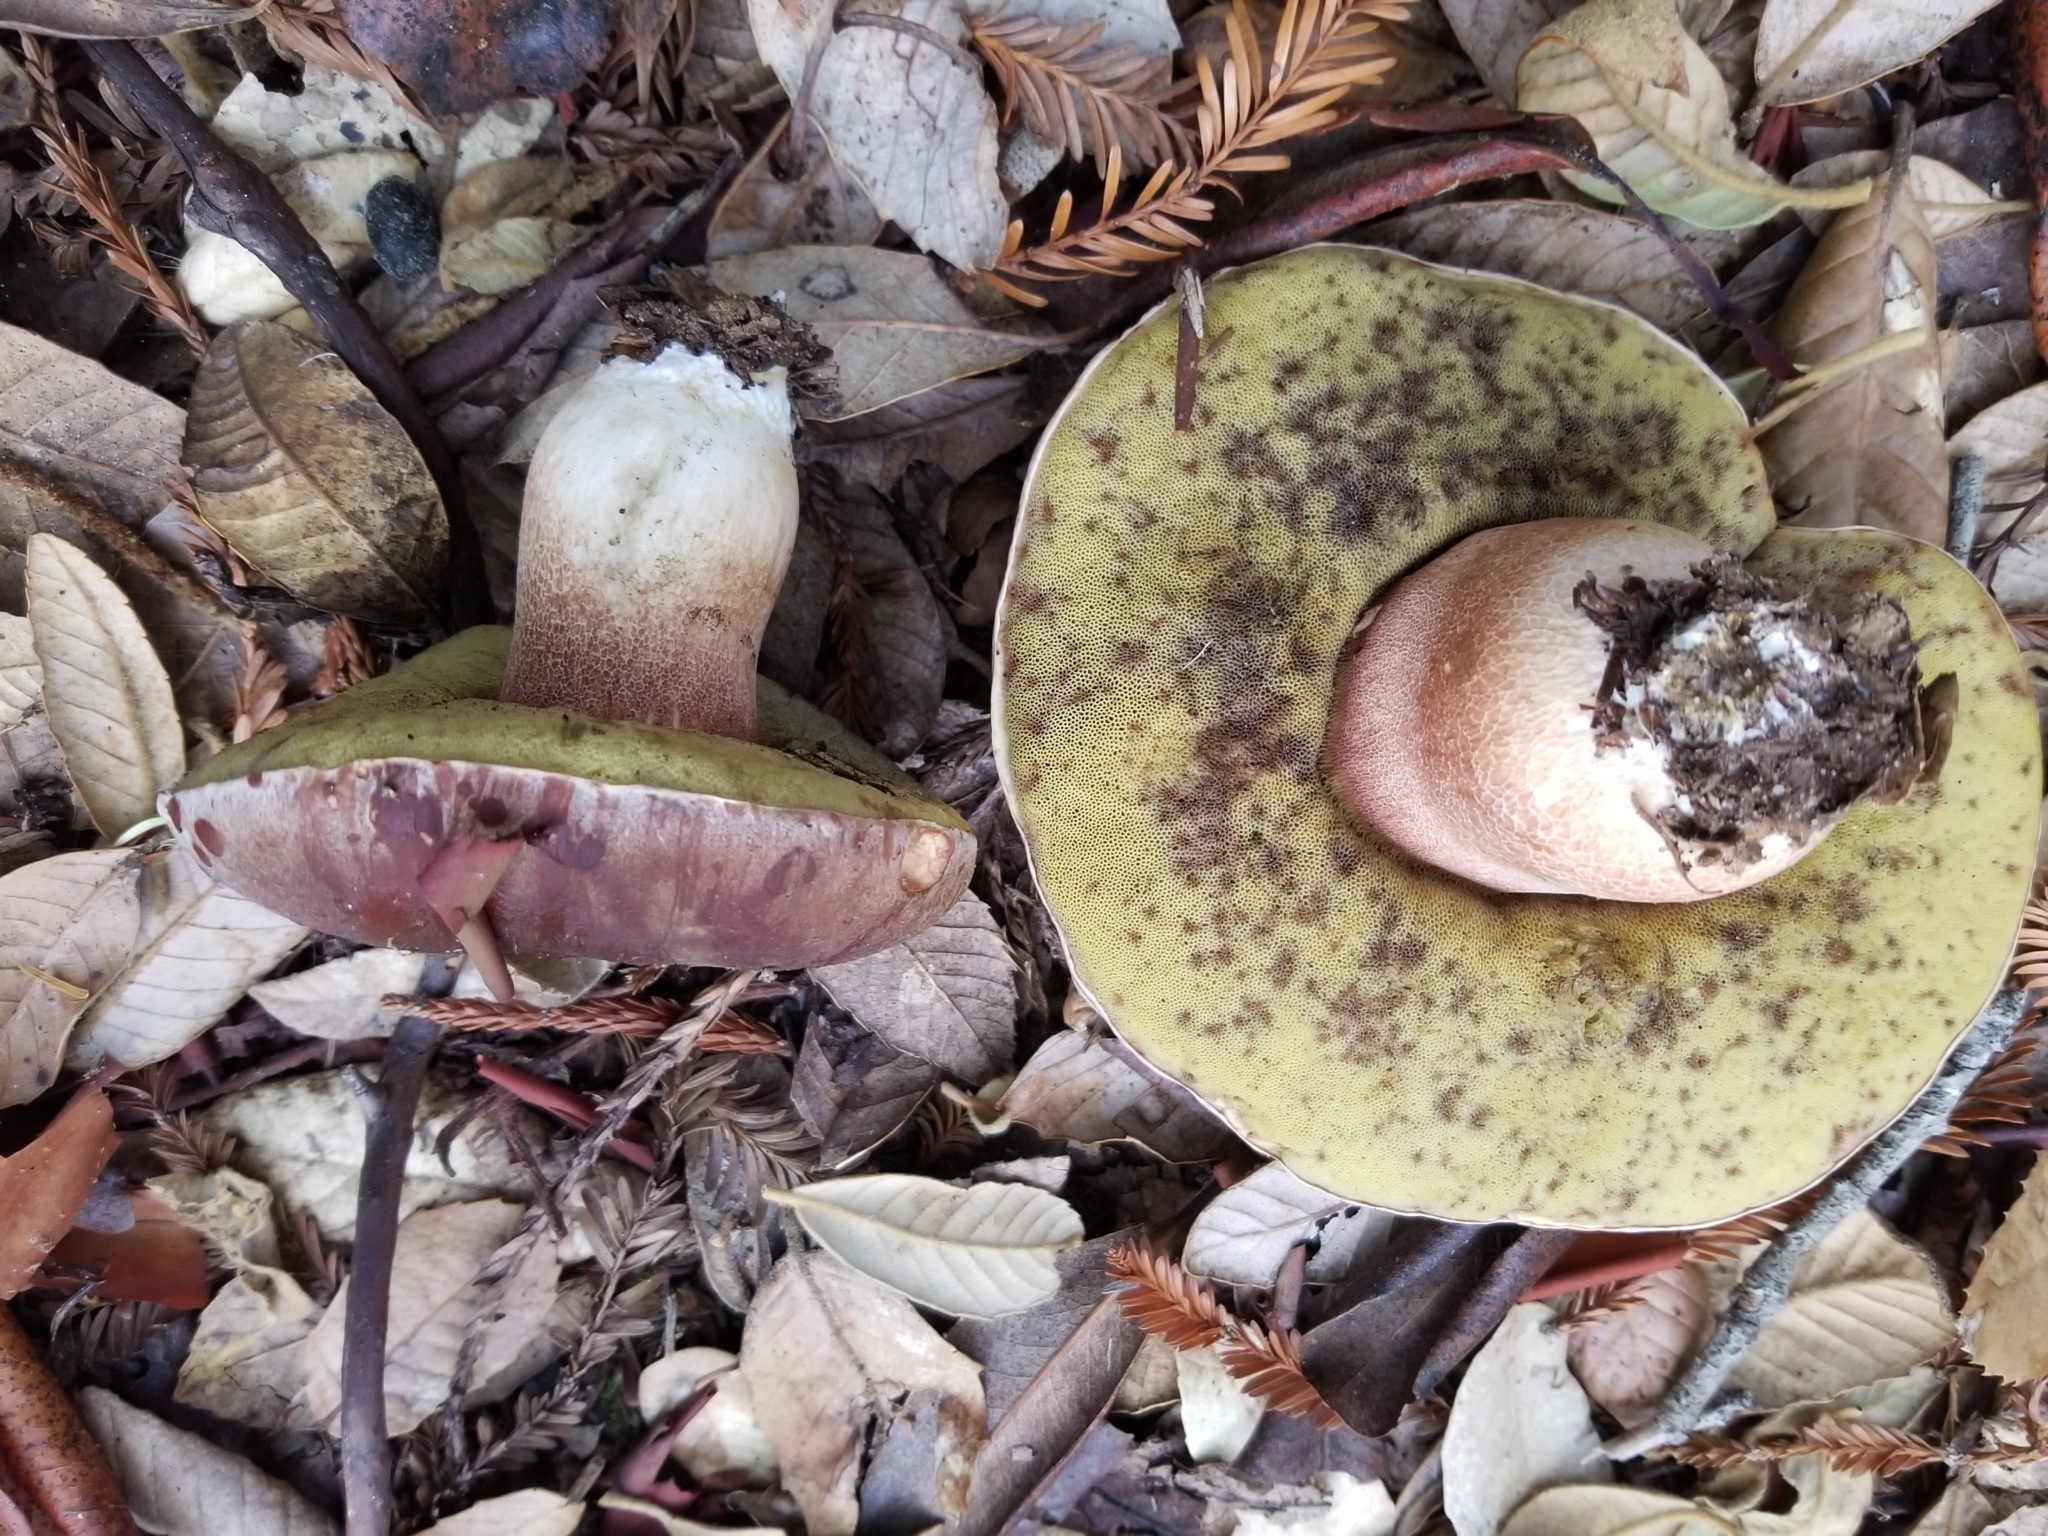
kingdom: Fungi
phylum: Basidiomycota
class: Agaricomycetes
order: Boletales
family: Boletaceae
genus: Boletus
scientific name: Boletus regineus
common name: Queen bolete
